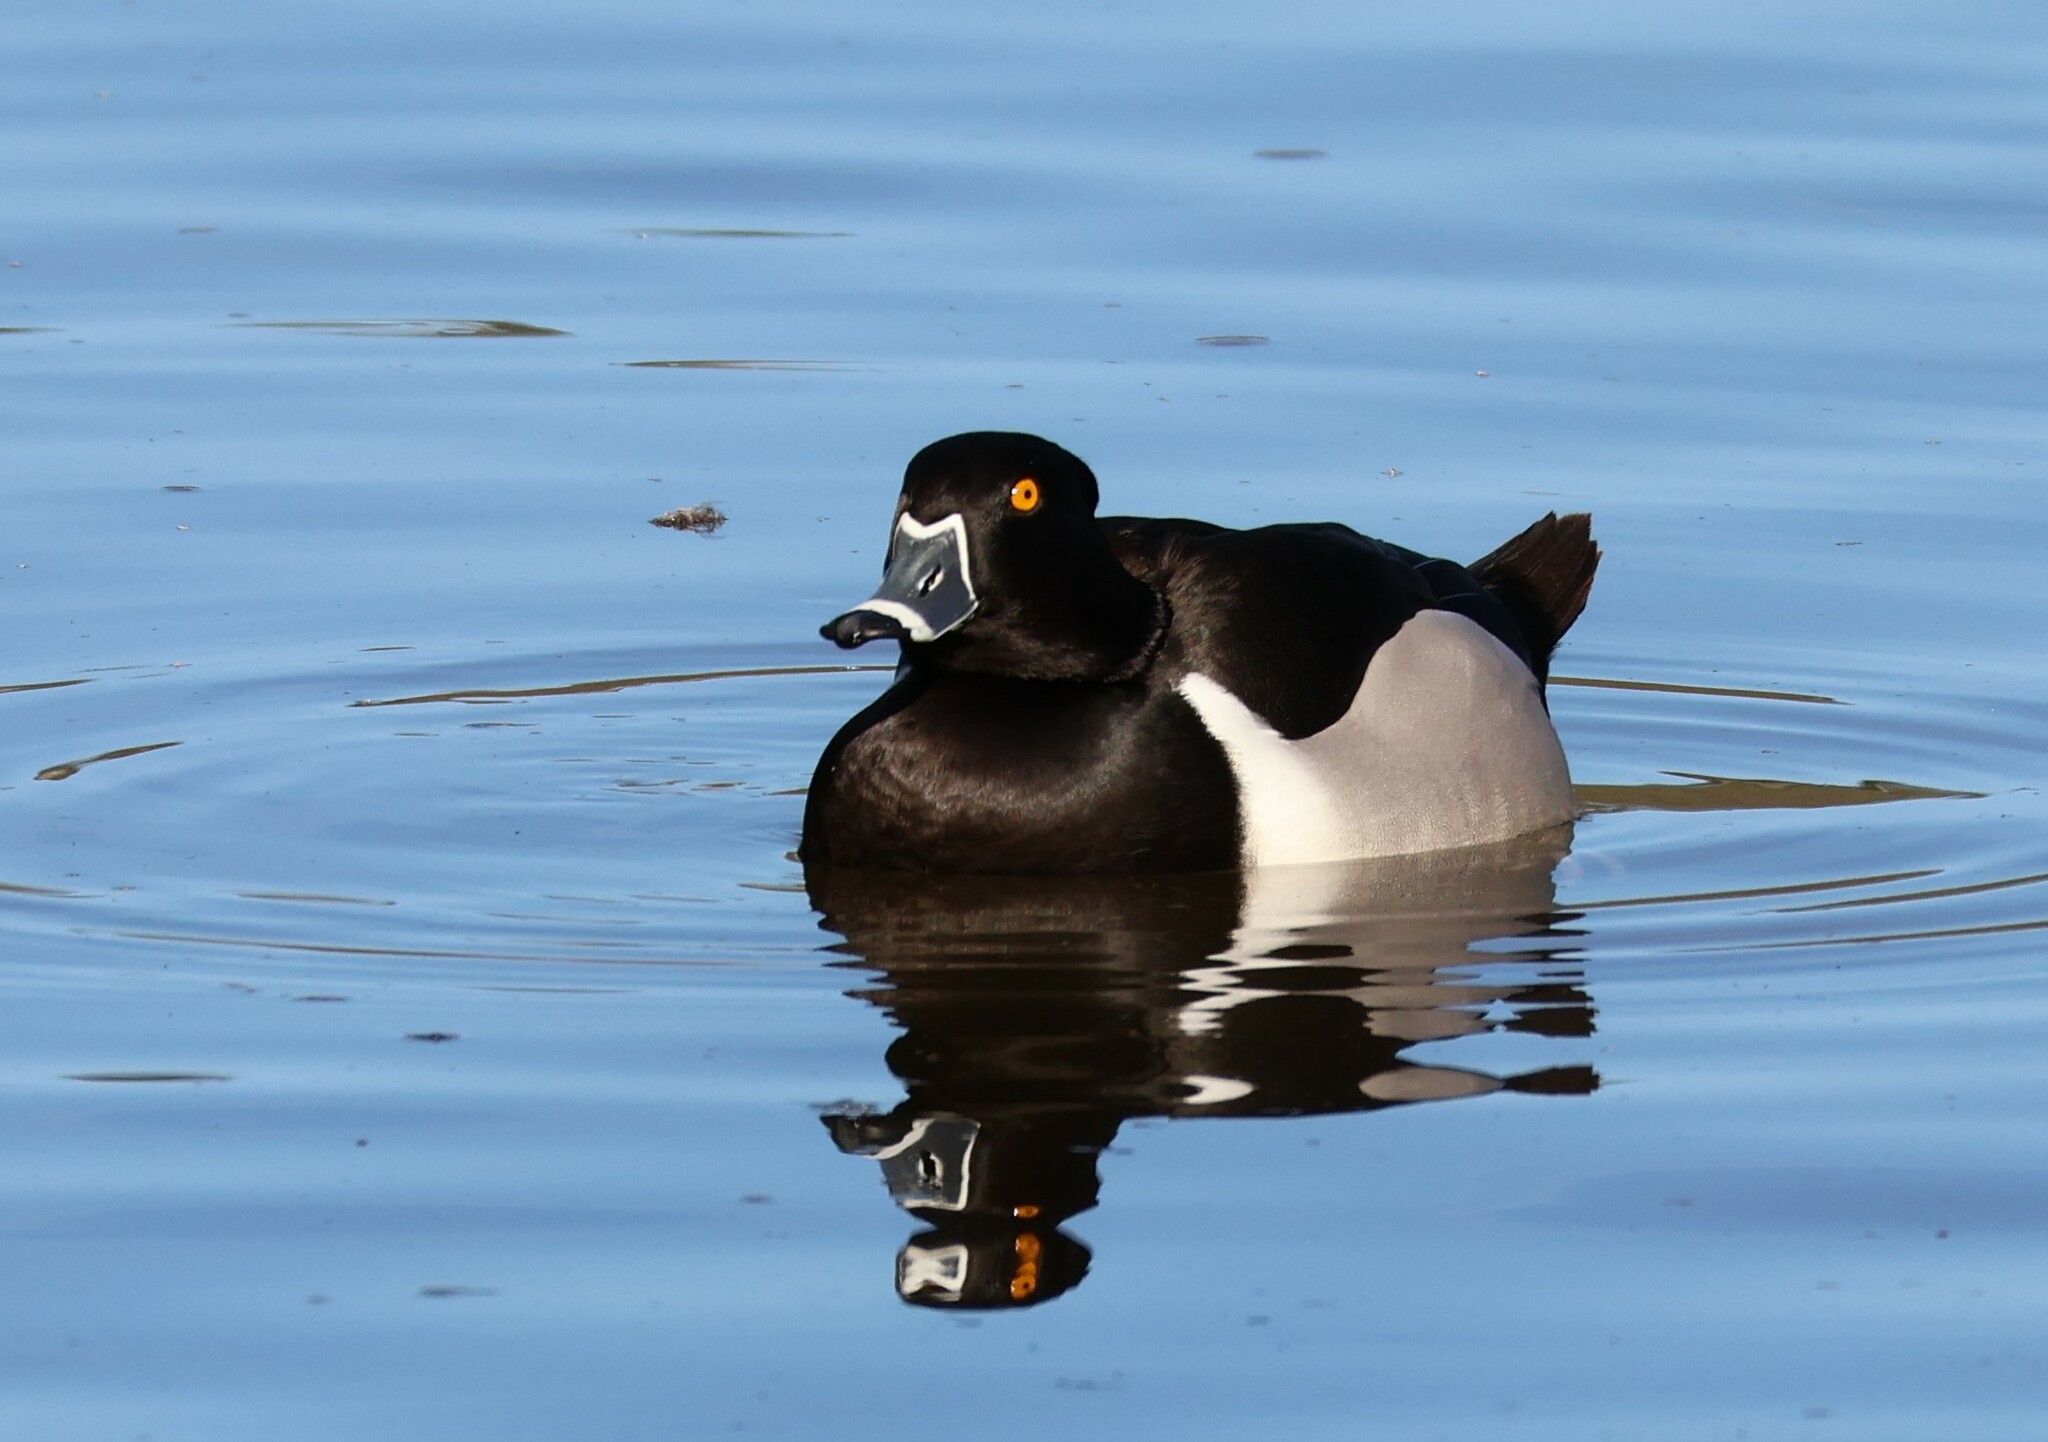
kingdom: Animalia
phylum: Chordata
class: Aves
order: Anseriformes
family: Anatidae
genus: Aythya
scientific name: Aythya collaris
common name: Ring-necked duck
